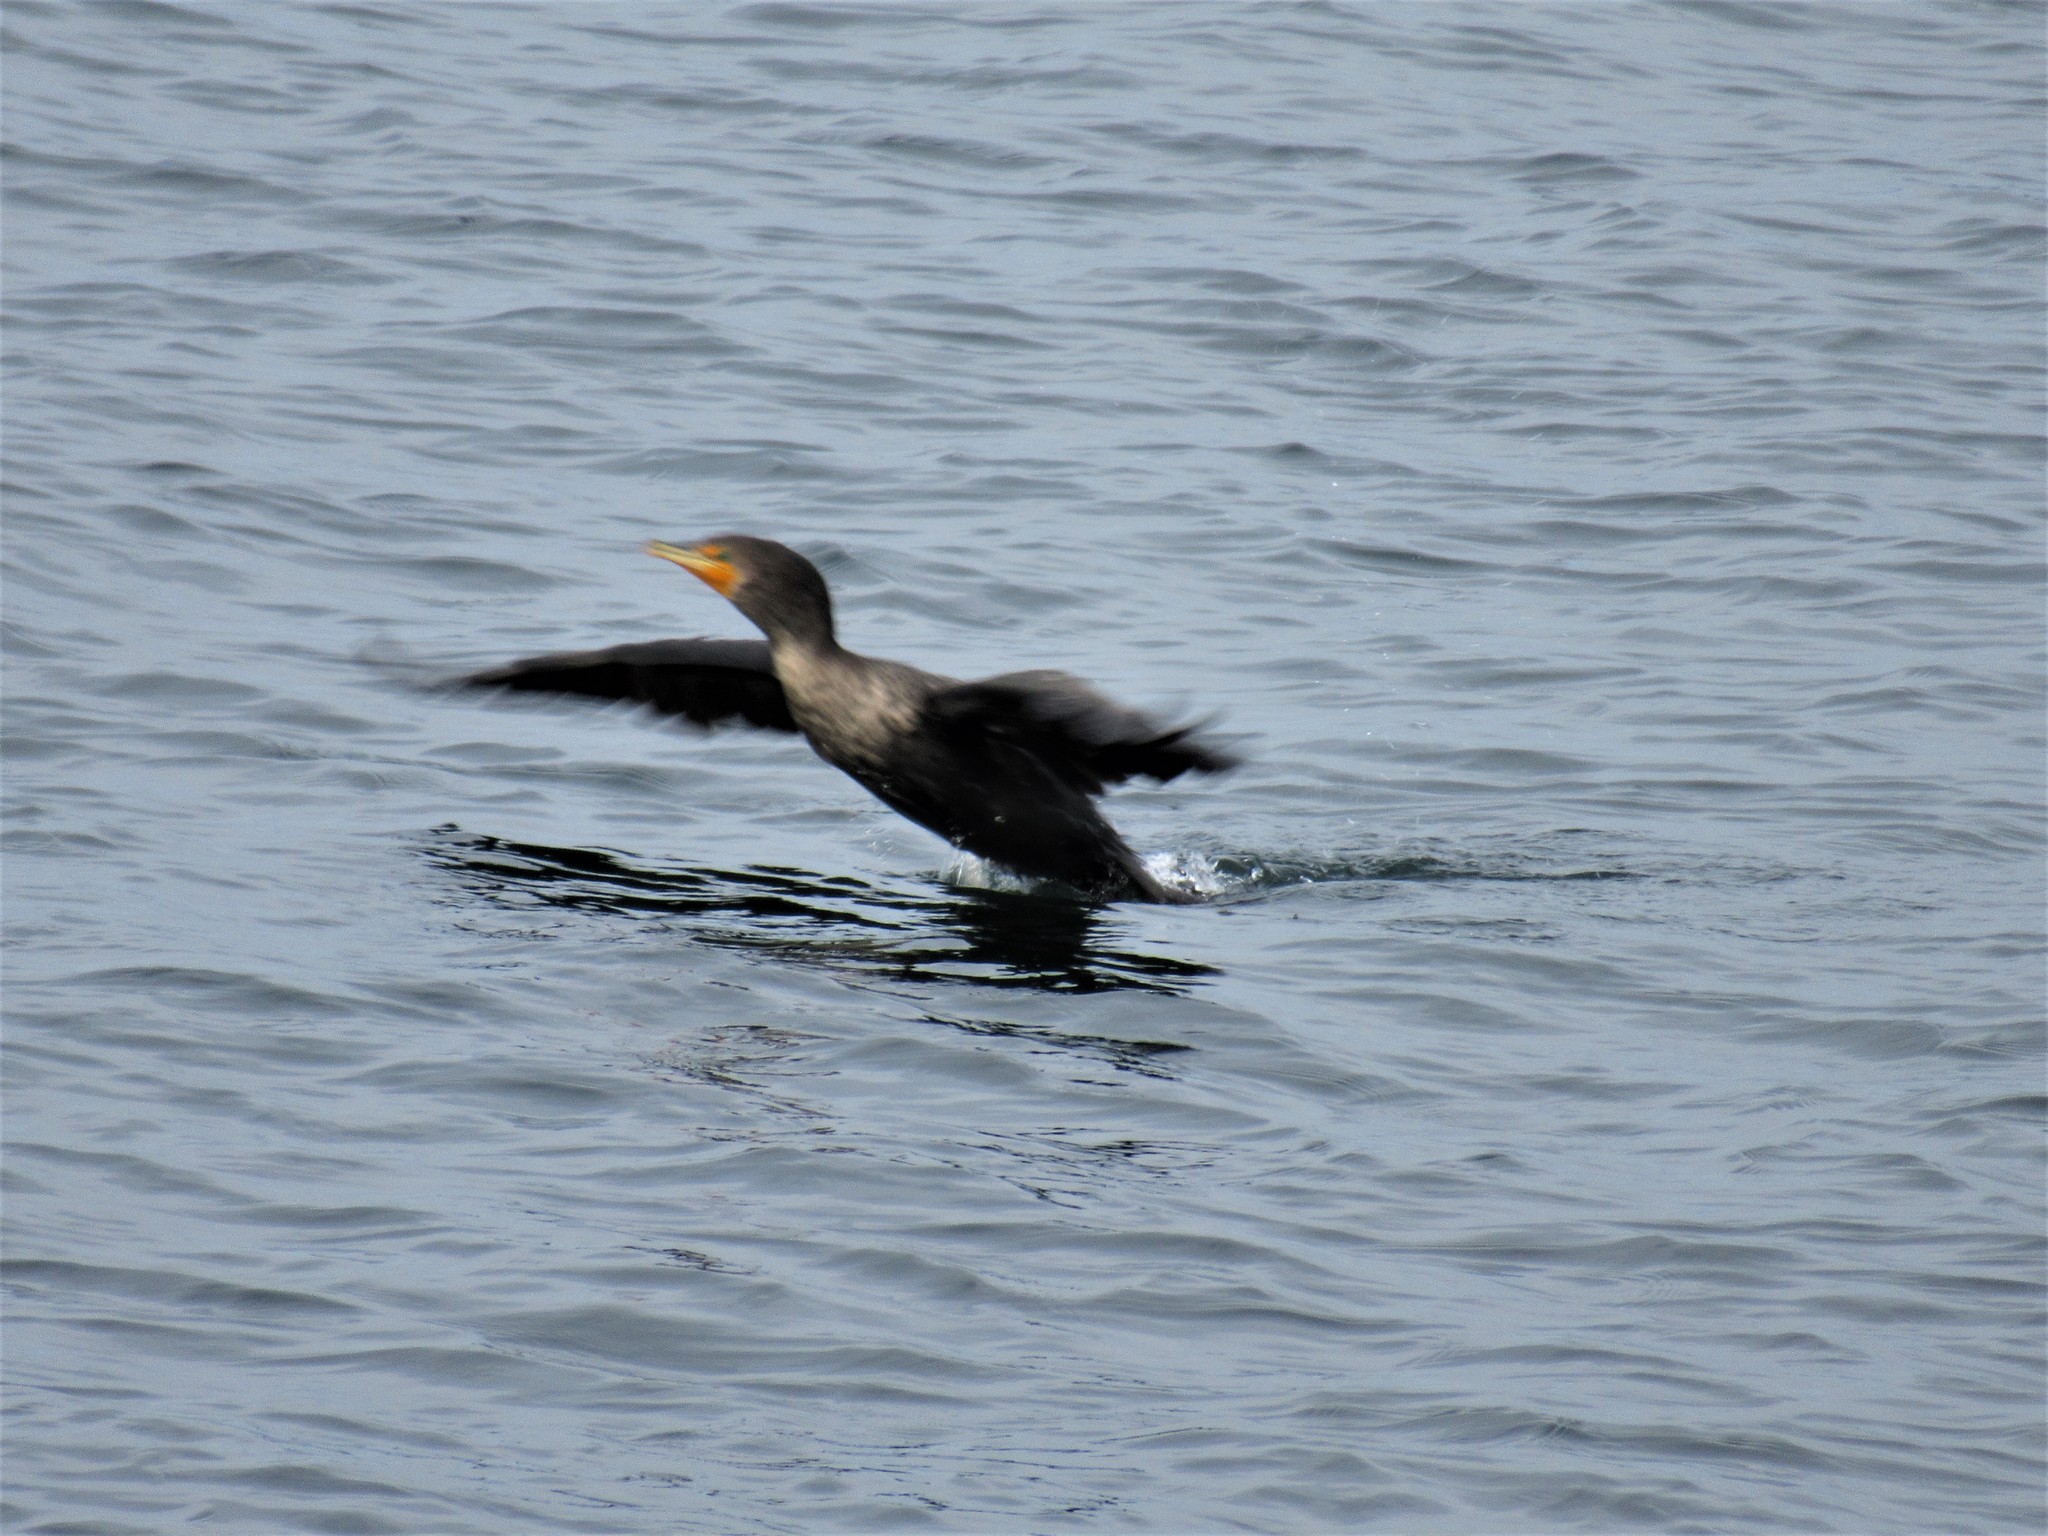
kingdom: Animalia
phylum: Chordata
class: Aves
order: Suliformes
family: Phalacrocoracidae
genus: Phalacrocorax
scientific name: Phalacrocorax auritus
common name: Double-crested cormorant
